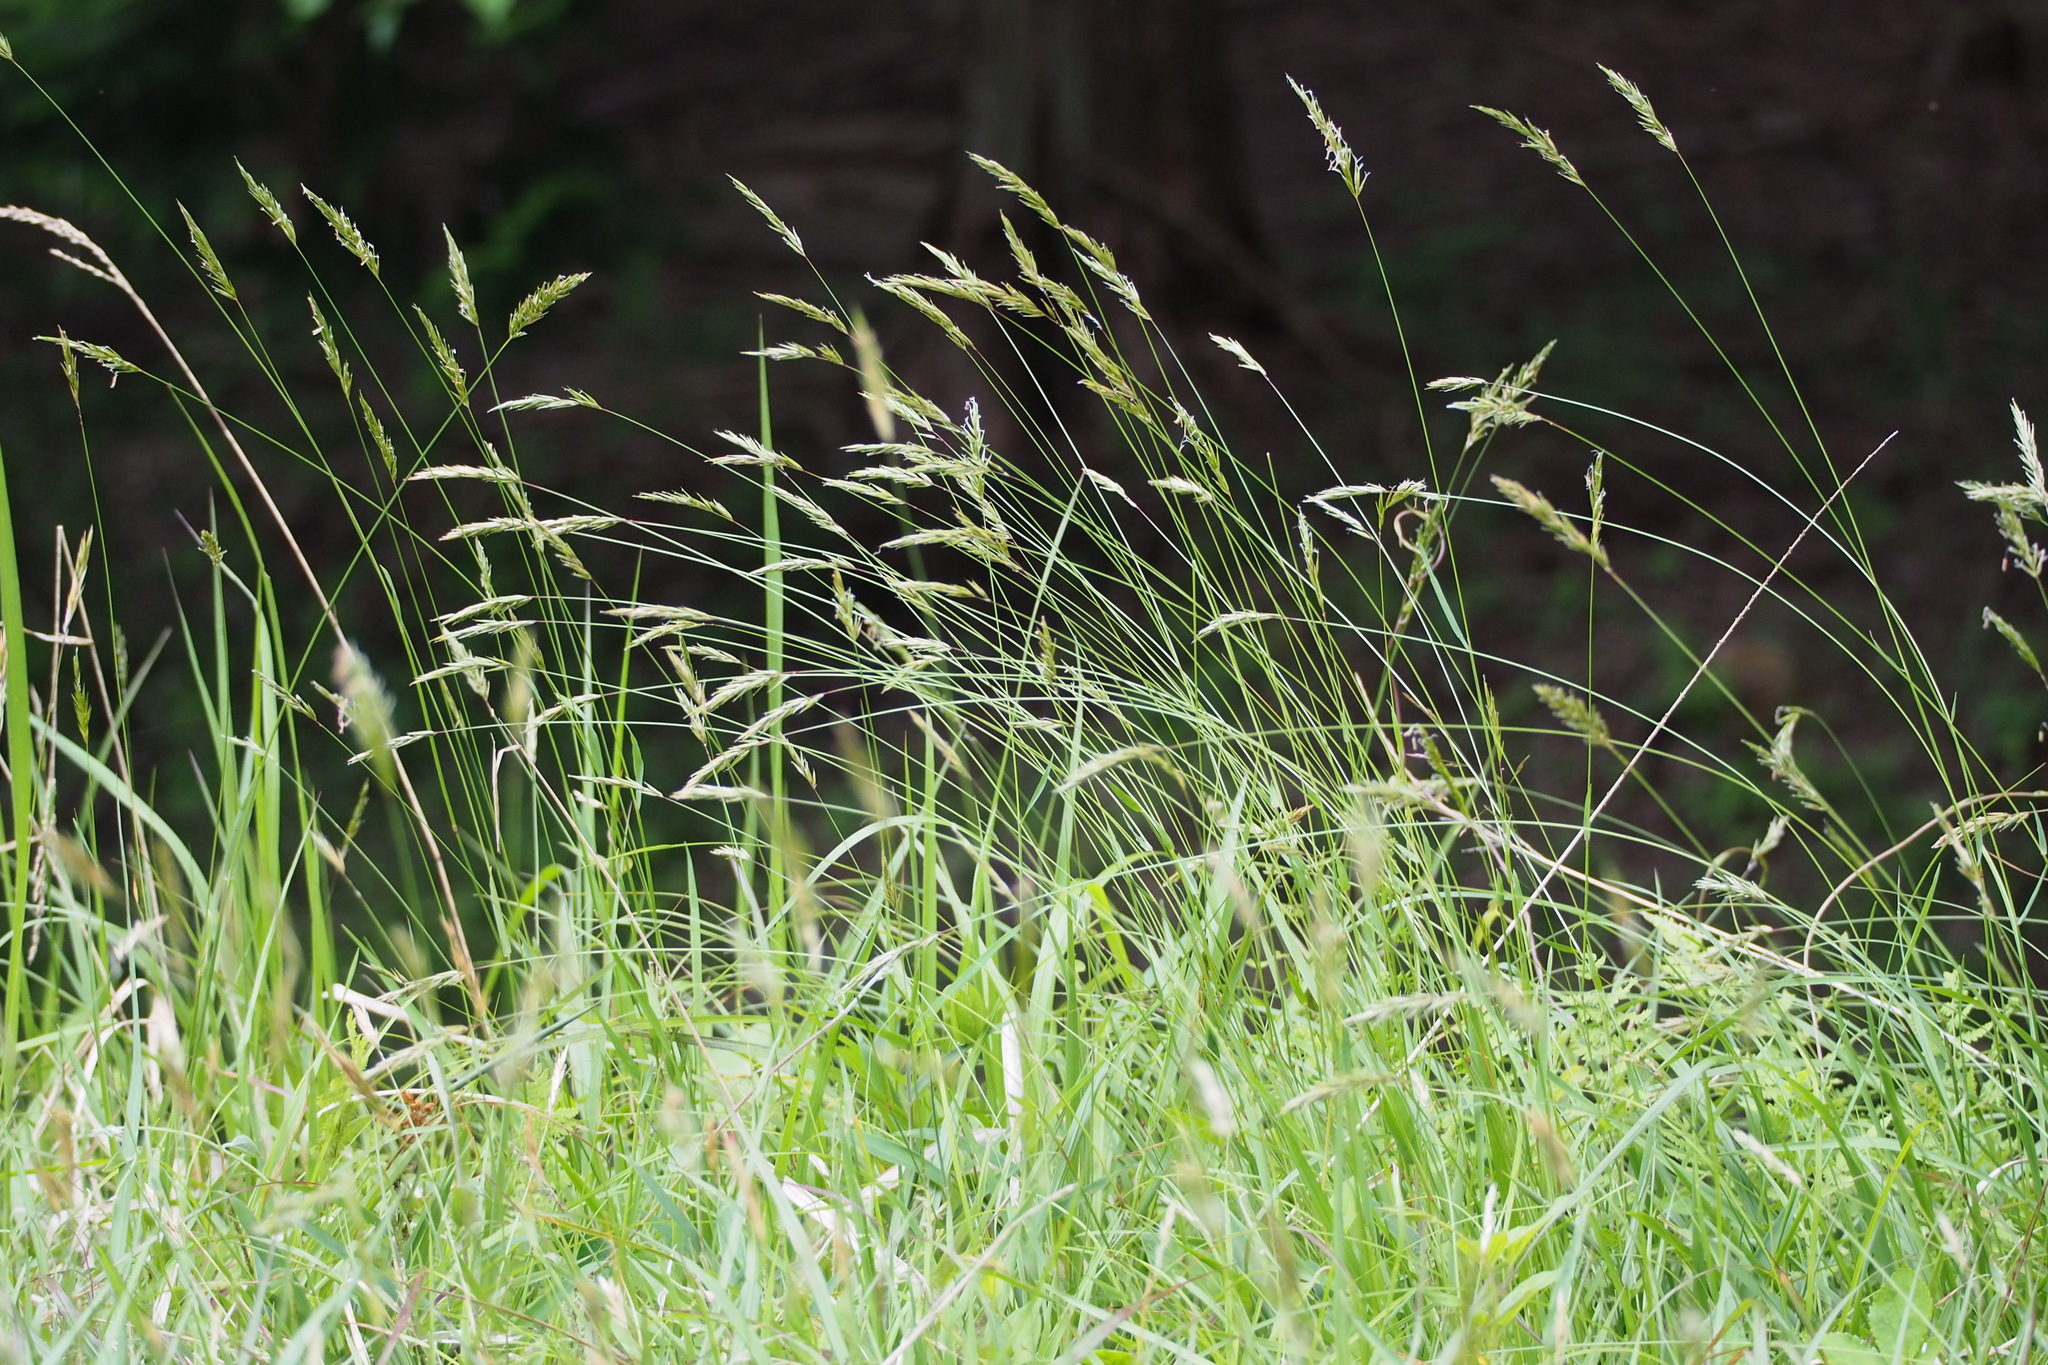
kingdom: Plantae
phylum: Tracheophyta
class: Liliopsida
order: Poales
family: Poaceae
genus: Anthoxanthum
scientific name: Anthoxanthum odoratum
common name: Sweet vernalgrass
